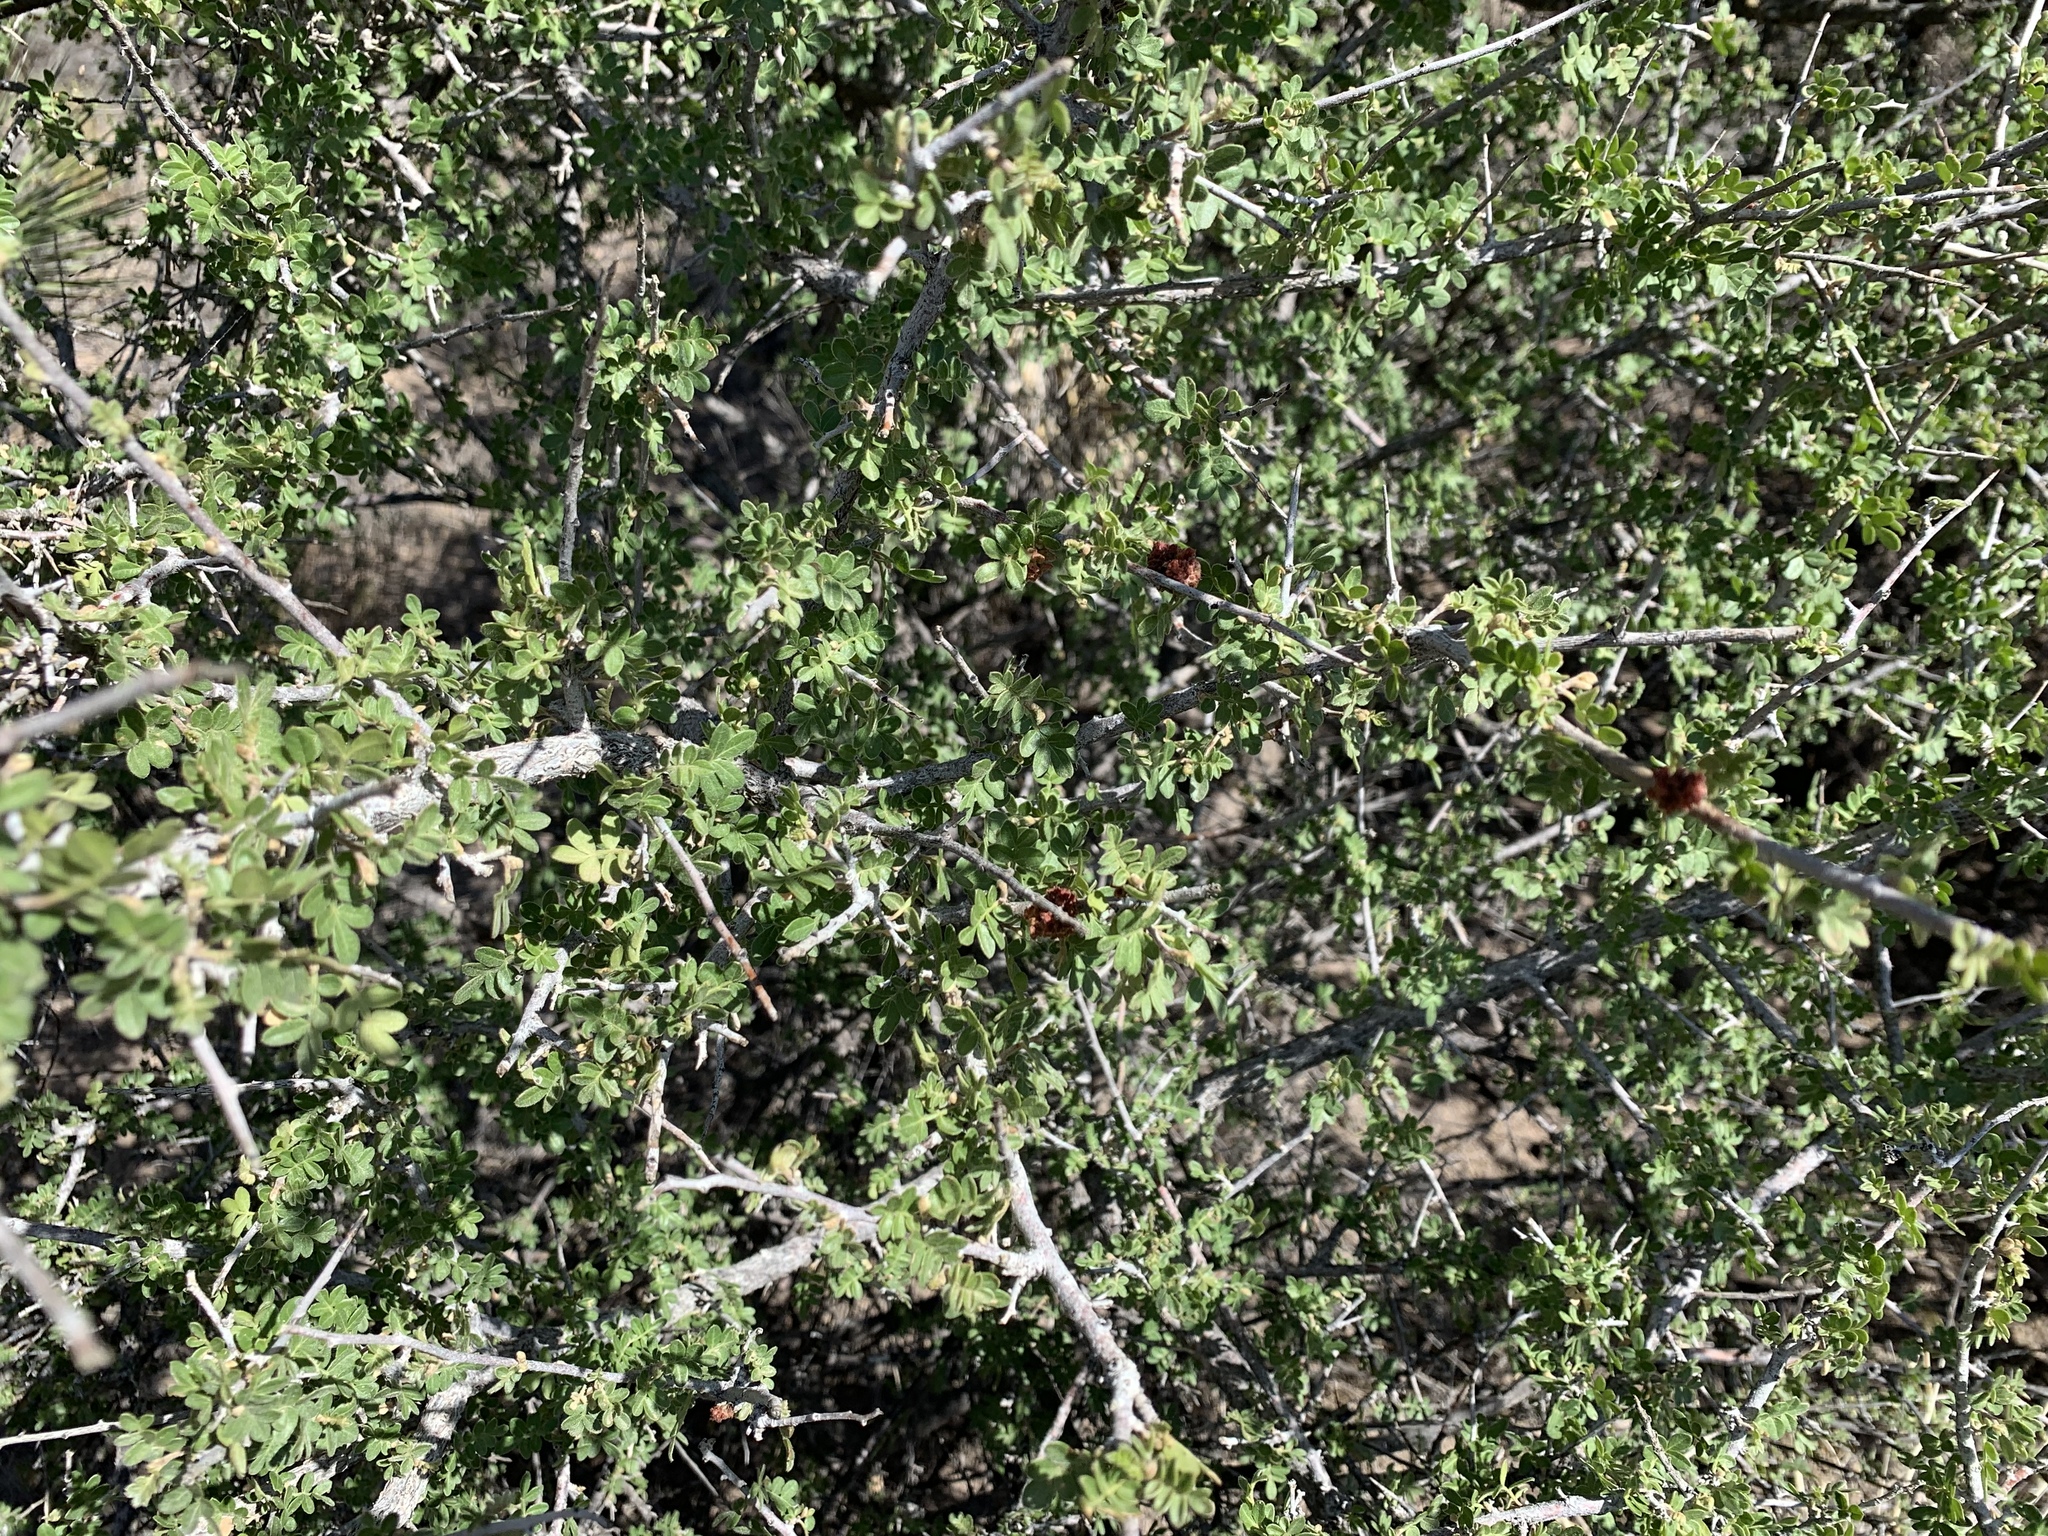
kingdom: Plantae
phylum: Tracheophyta
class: Magnoliopsida
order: Sapindales
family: Anacardiaceae
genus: Rhus
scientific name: Rhus microphylla
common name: Desert sumac
